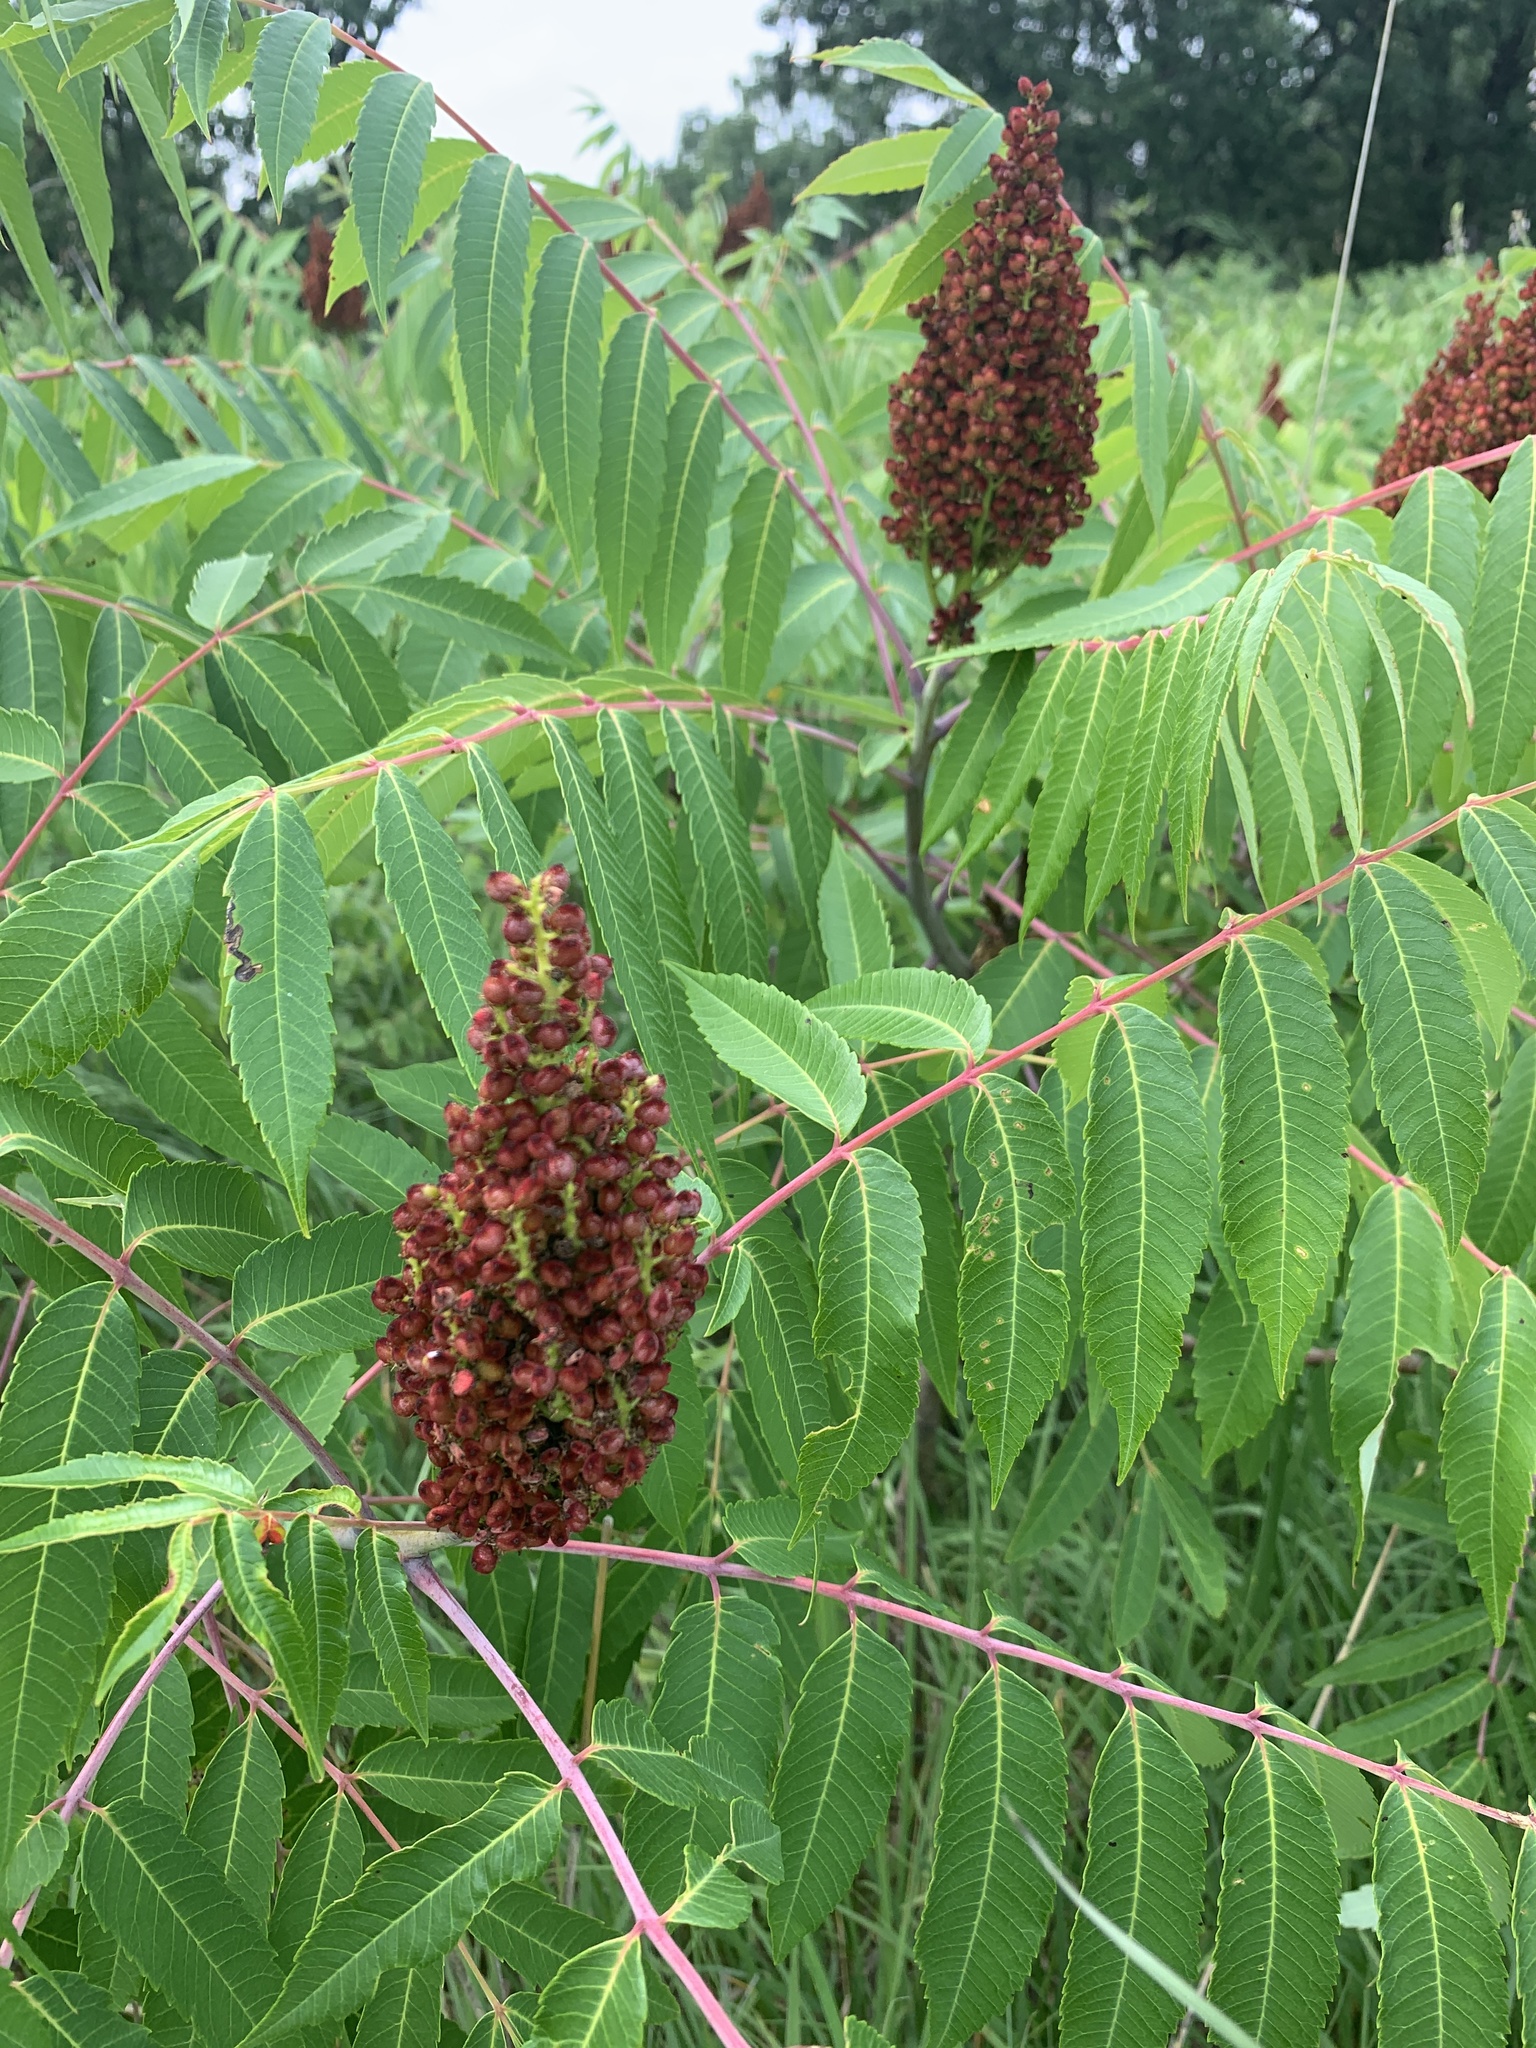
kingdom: Plantae
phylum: Tracheophyta
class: Magnoliopsida
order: Sapindales
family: Anacardiaceae
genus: Rhus
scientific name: Rhus glabra
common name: Scarlet sumac
